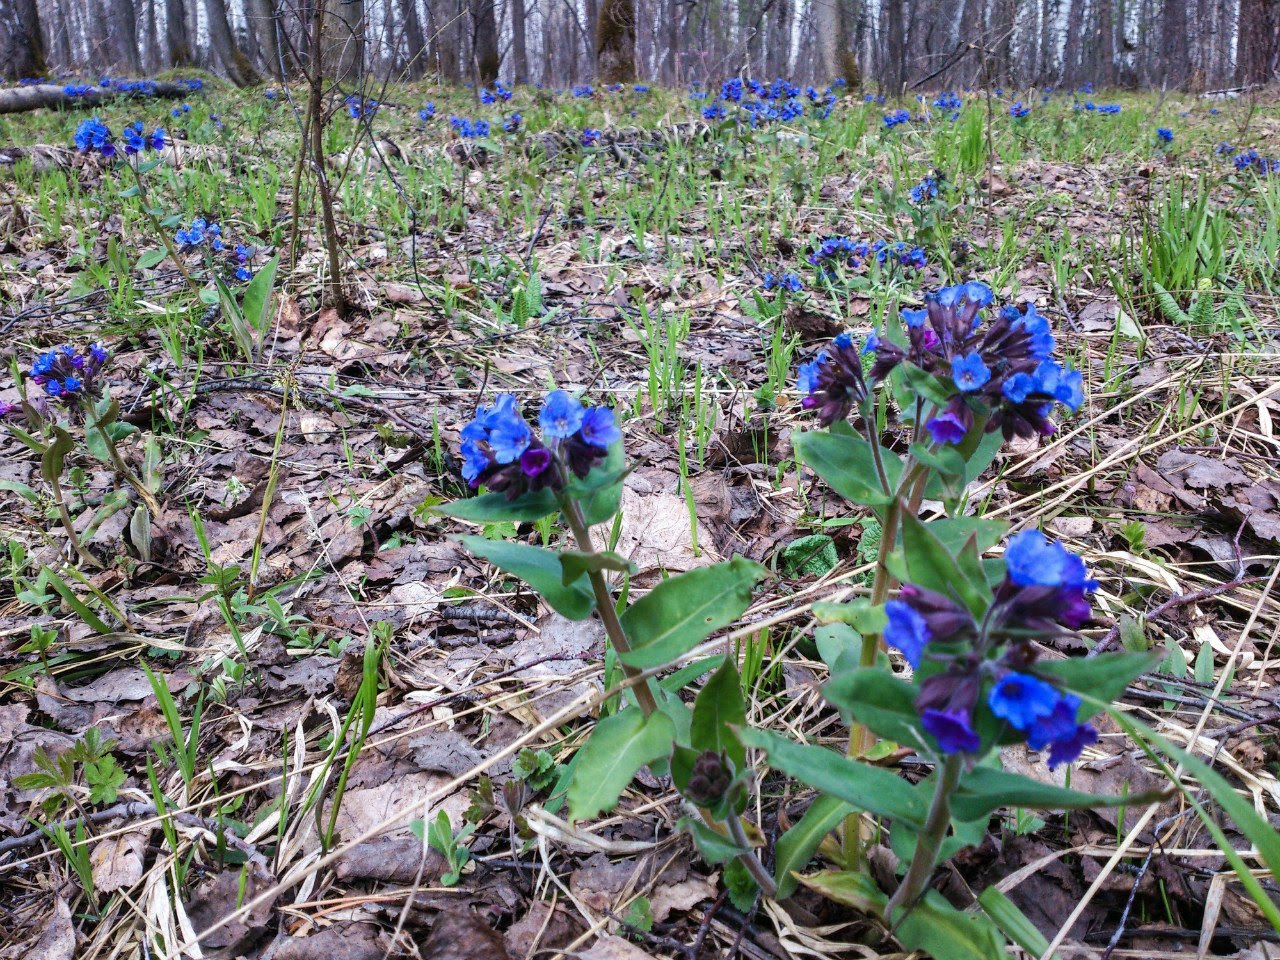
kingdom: Plantae
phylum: Tracheophyta
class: Magnoliopsida
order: Boraginales
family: Boraginaceae
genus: Pulmonaria
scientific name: Pulmonaria mollis
